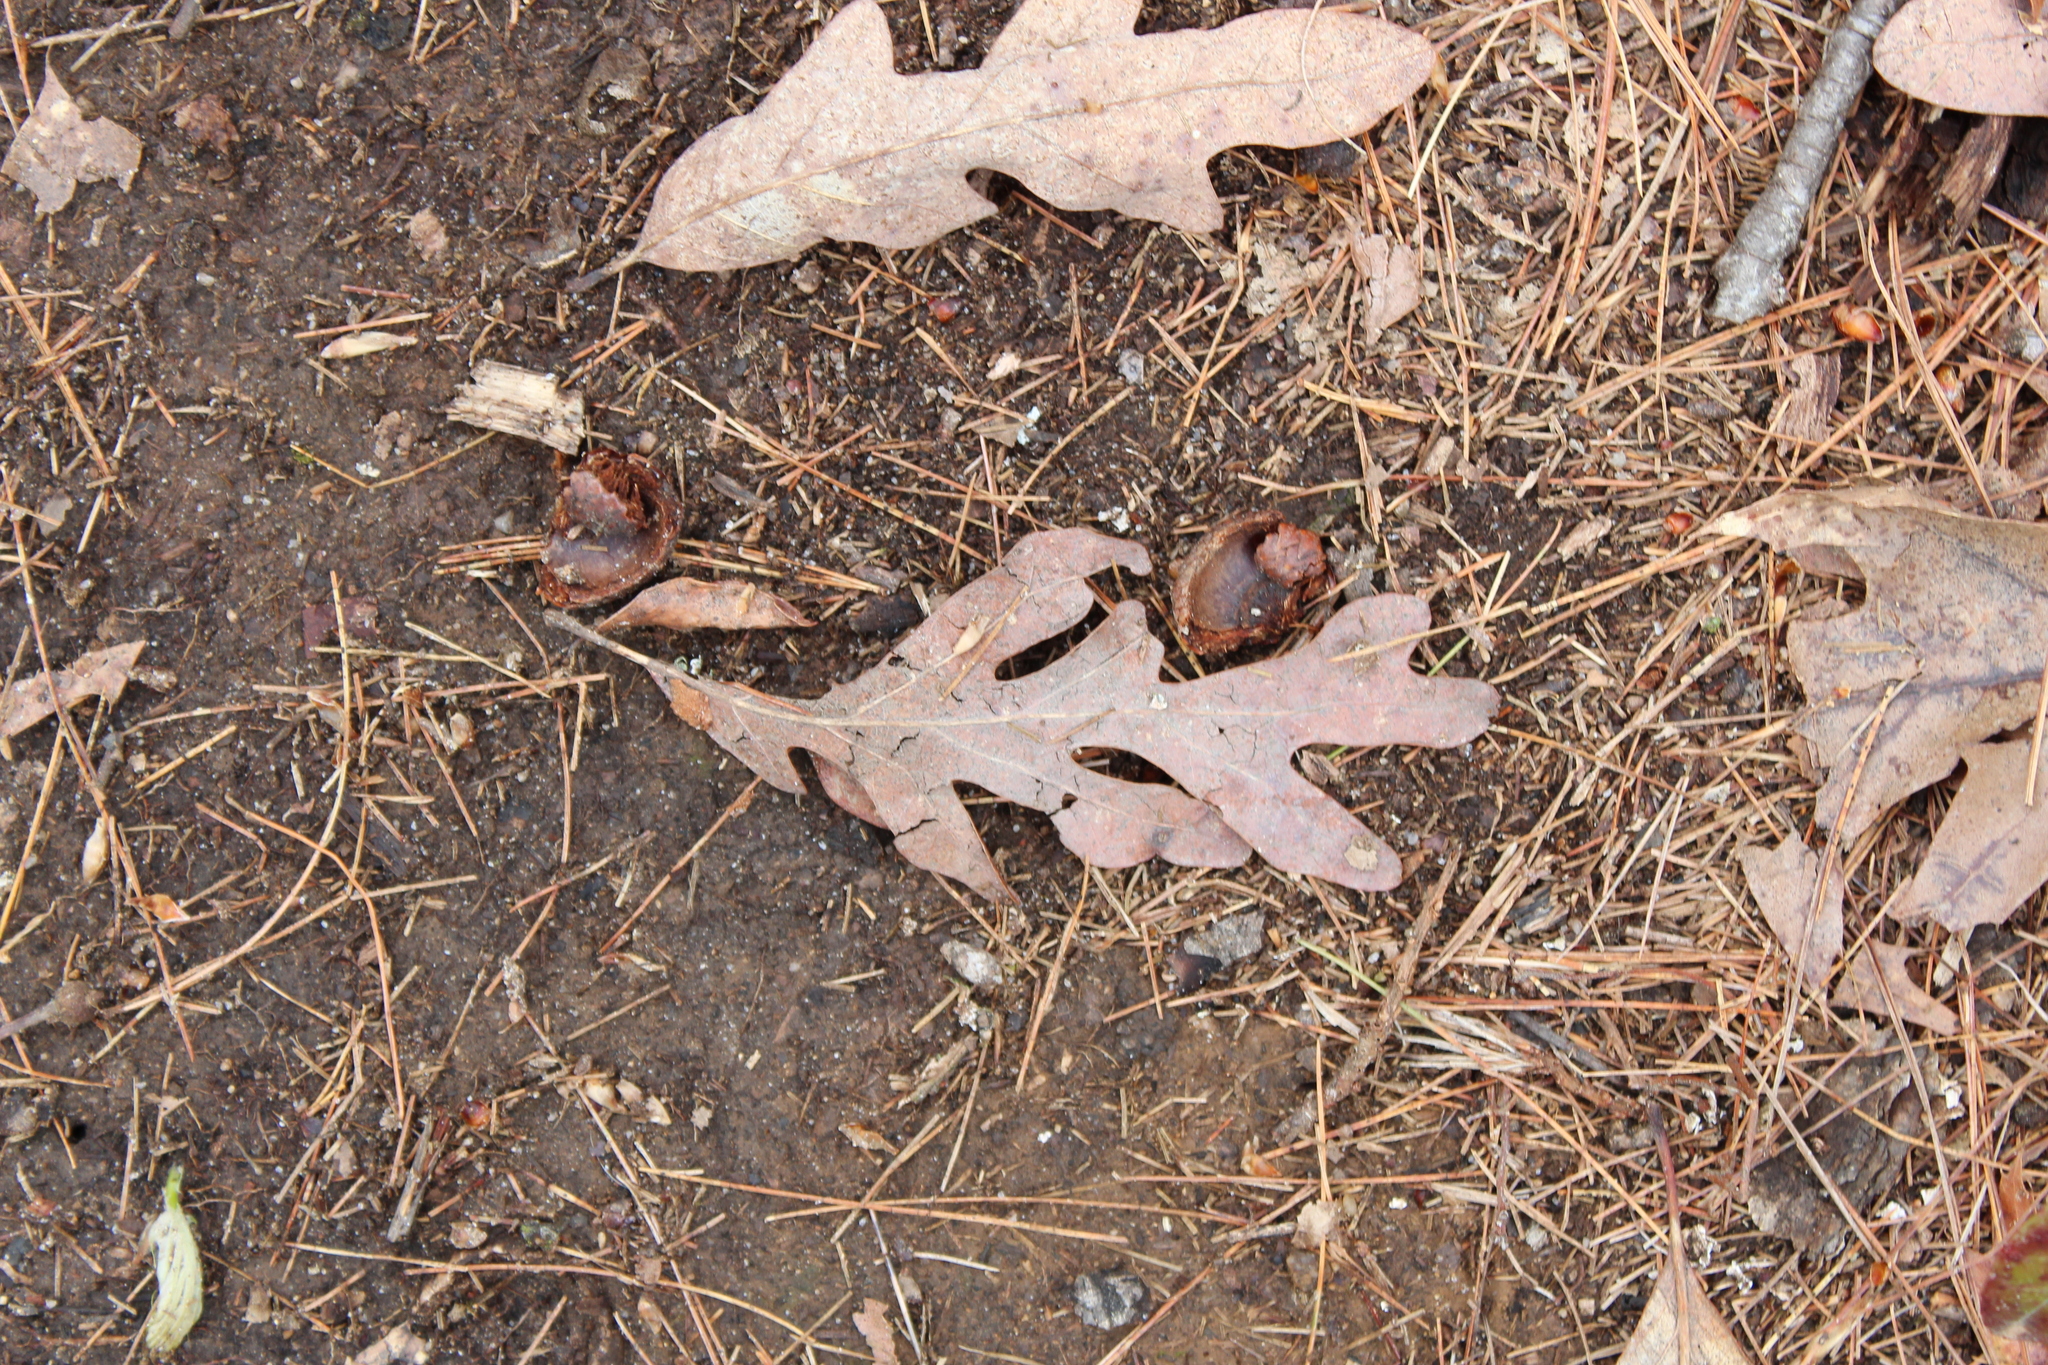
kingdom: Plantae
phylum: Tracheophyta
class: Magnoliopsida
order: Fagales
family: Fagaceae
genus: Quercus
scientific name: Quercus alba
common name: White oak
